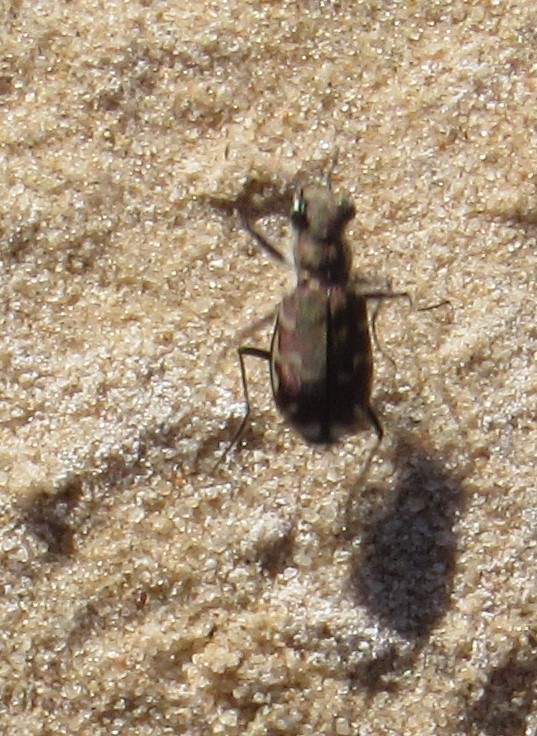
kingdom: Animalia
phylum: Arthropoda
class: Insecta
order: Coleoptera
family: Carabidae
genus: Cicindela
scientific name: Cicindela repanda
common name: Bronzed tiger beetle
